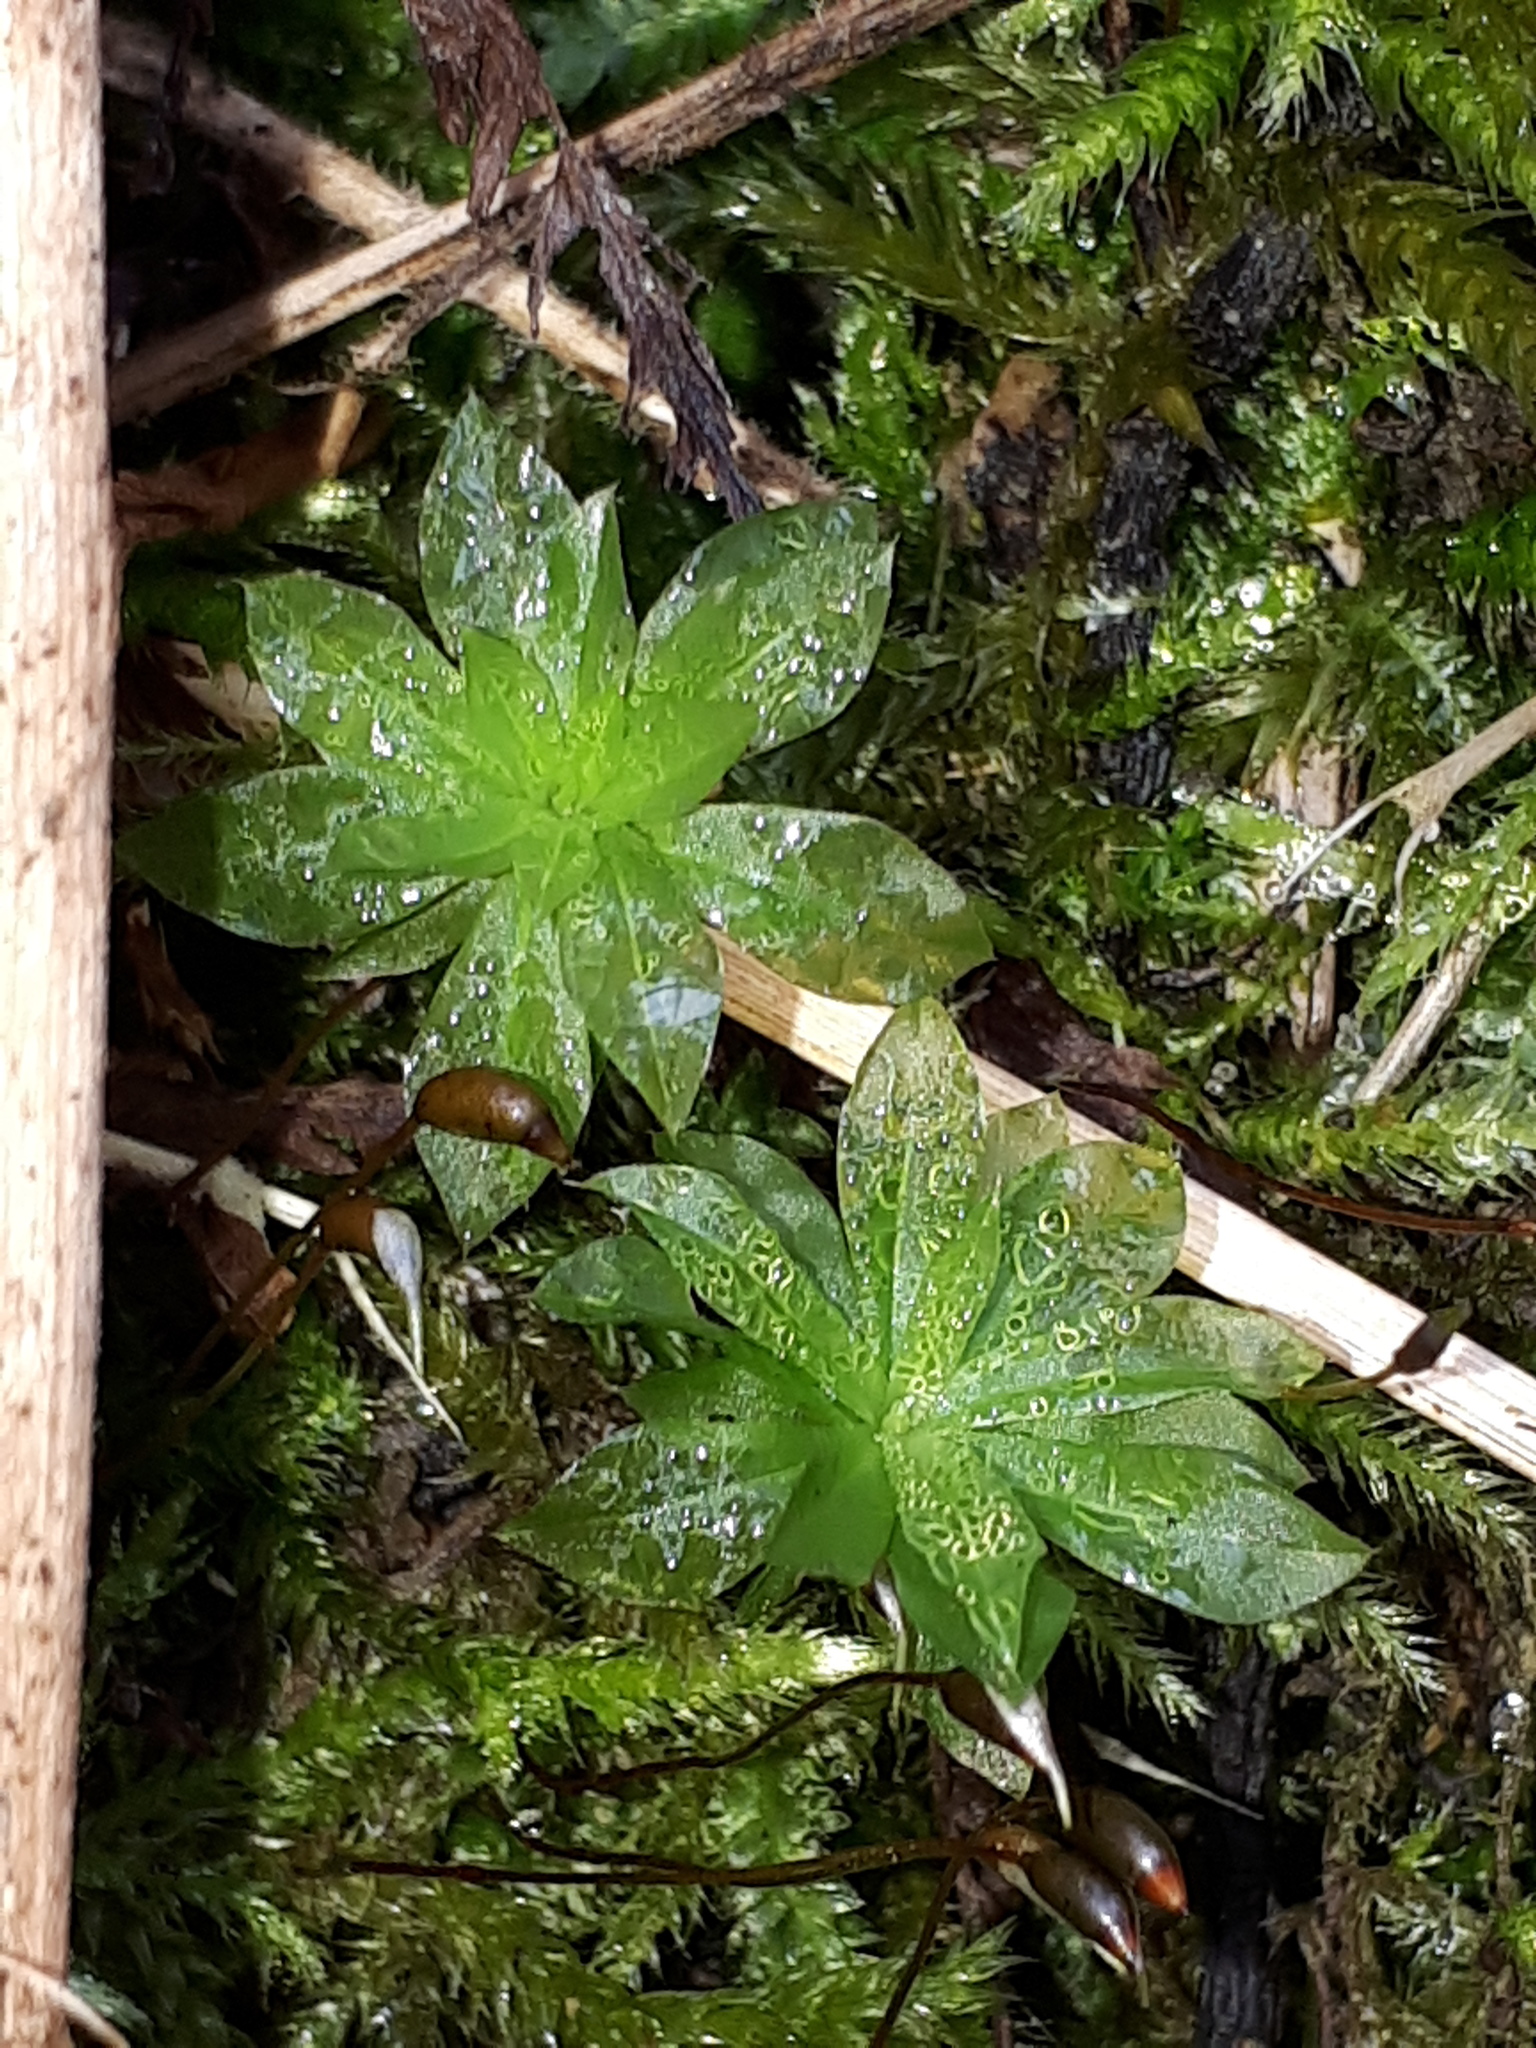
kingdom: Plantae
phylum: Bryophyta
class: Bryopsida
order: Bryales
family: Bryaceae
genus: Rhodobryum
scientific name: Rhodobryum roseum
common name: Rose-moss
